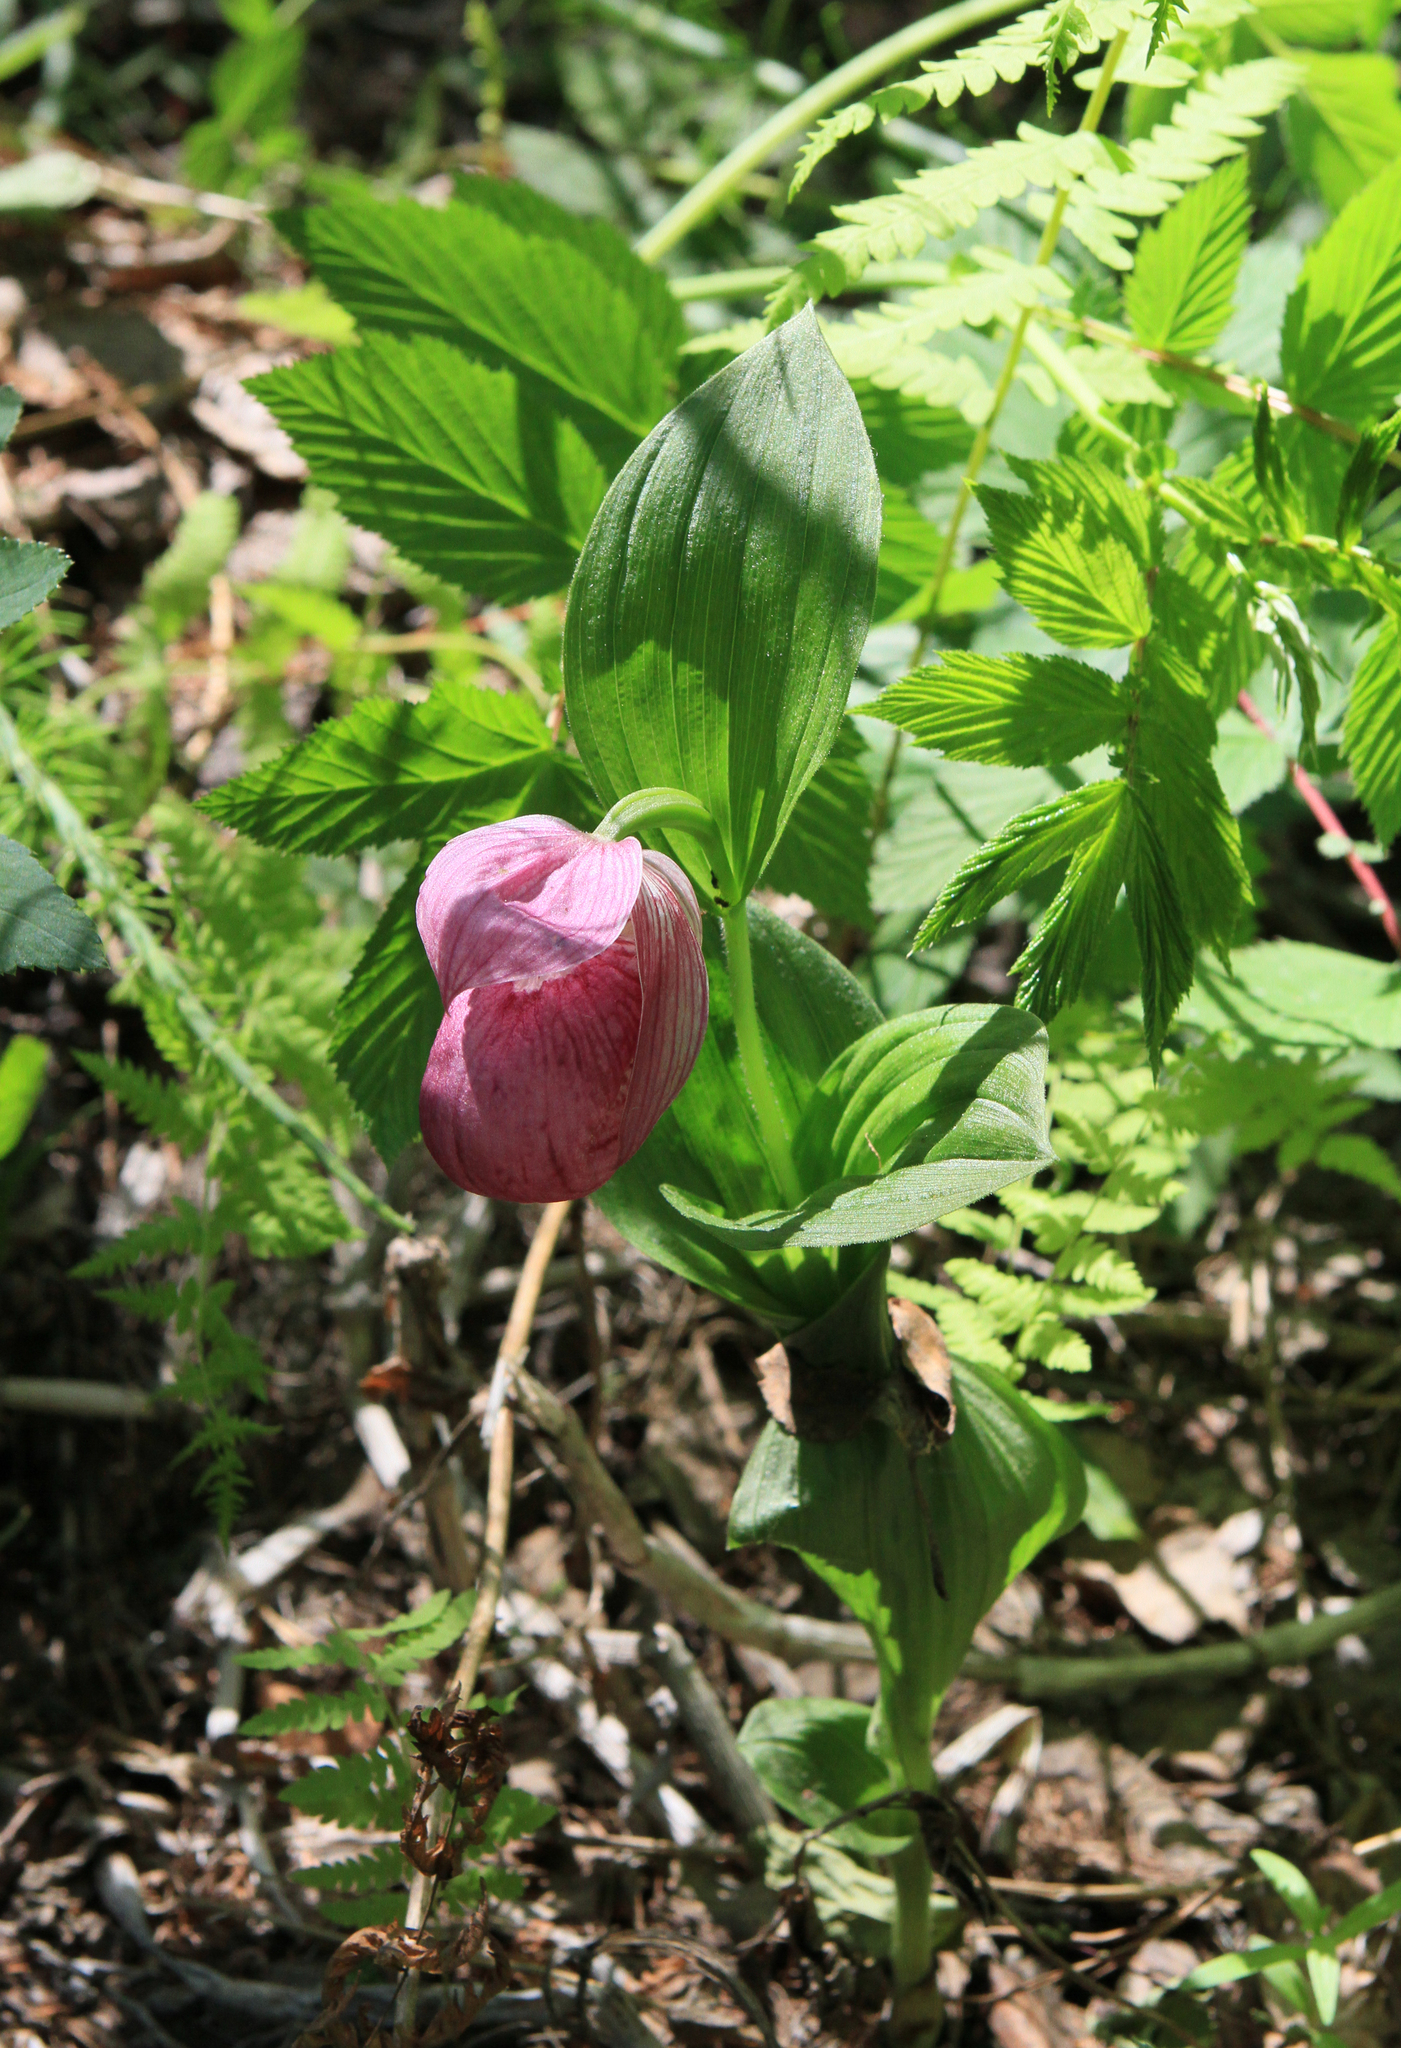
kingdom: Plantae
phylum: Tracheophyta
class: Liliopsida
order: Asparagales
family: Orchidaceae
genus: Cypripedium
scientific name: Cypripedium macranthos
